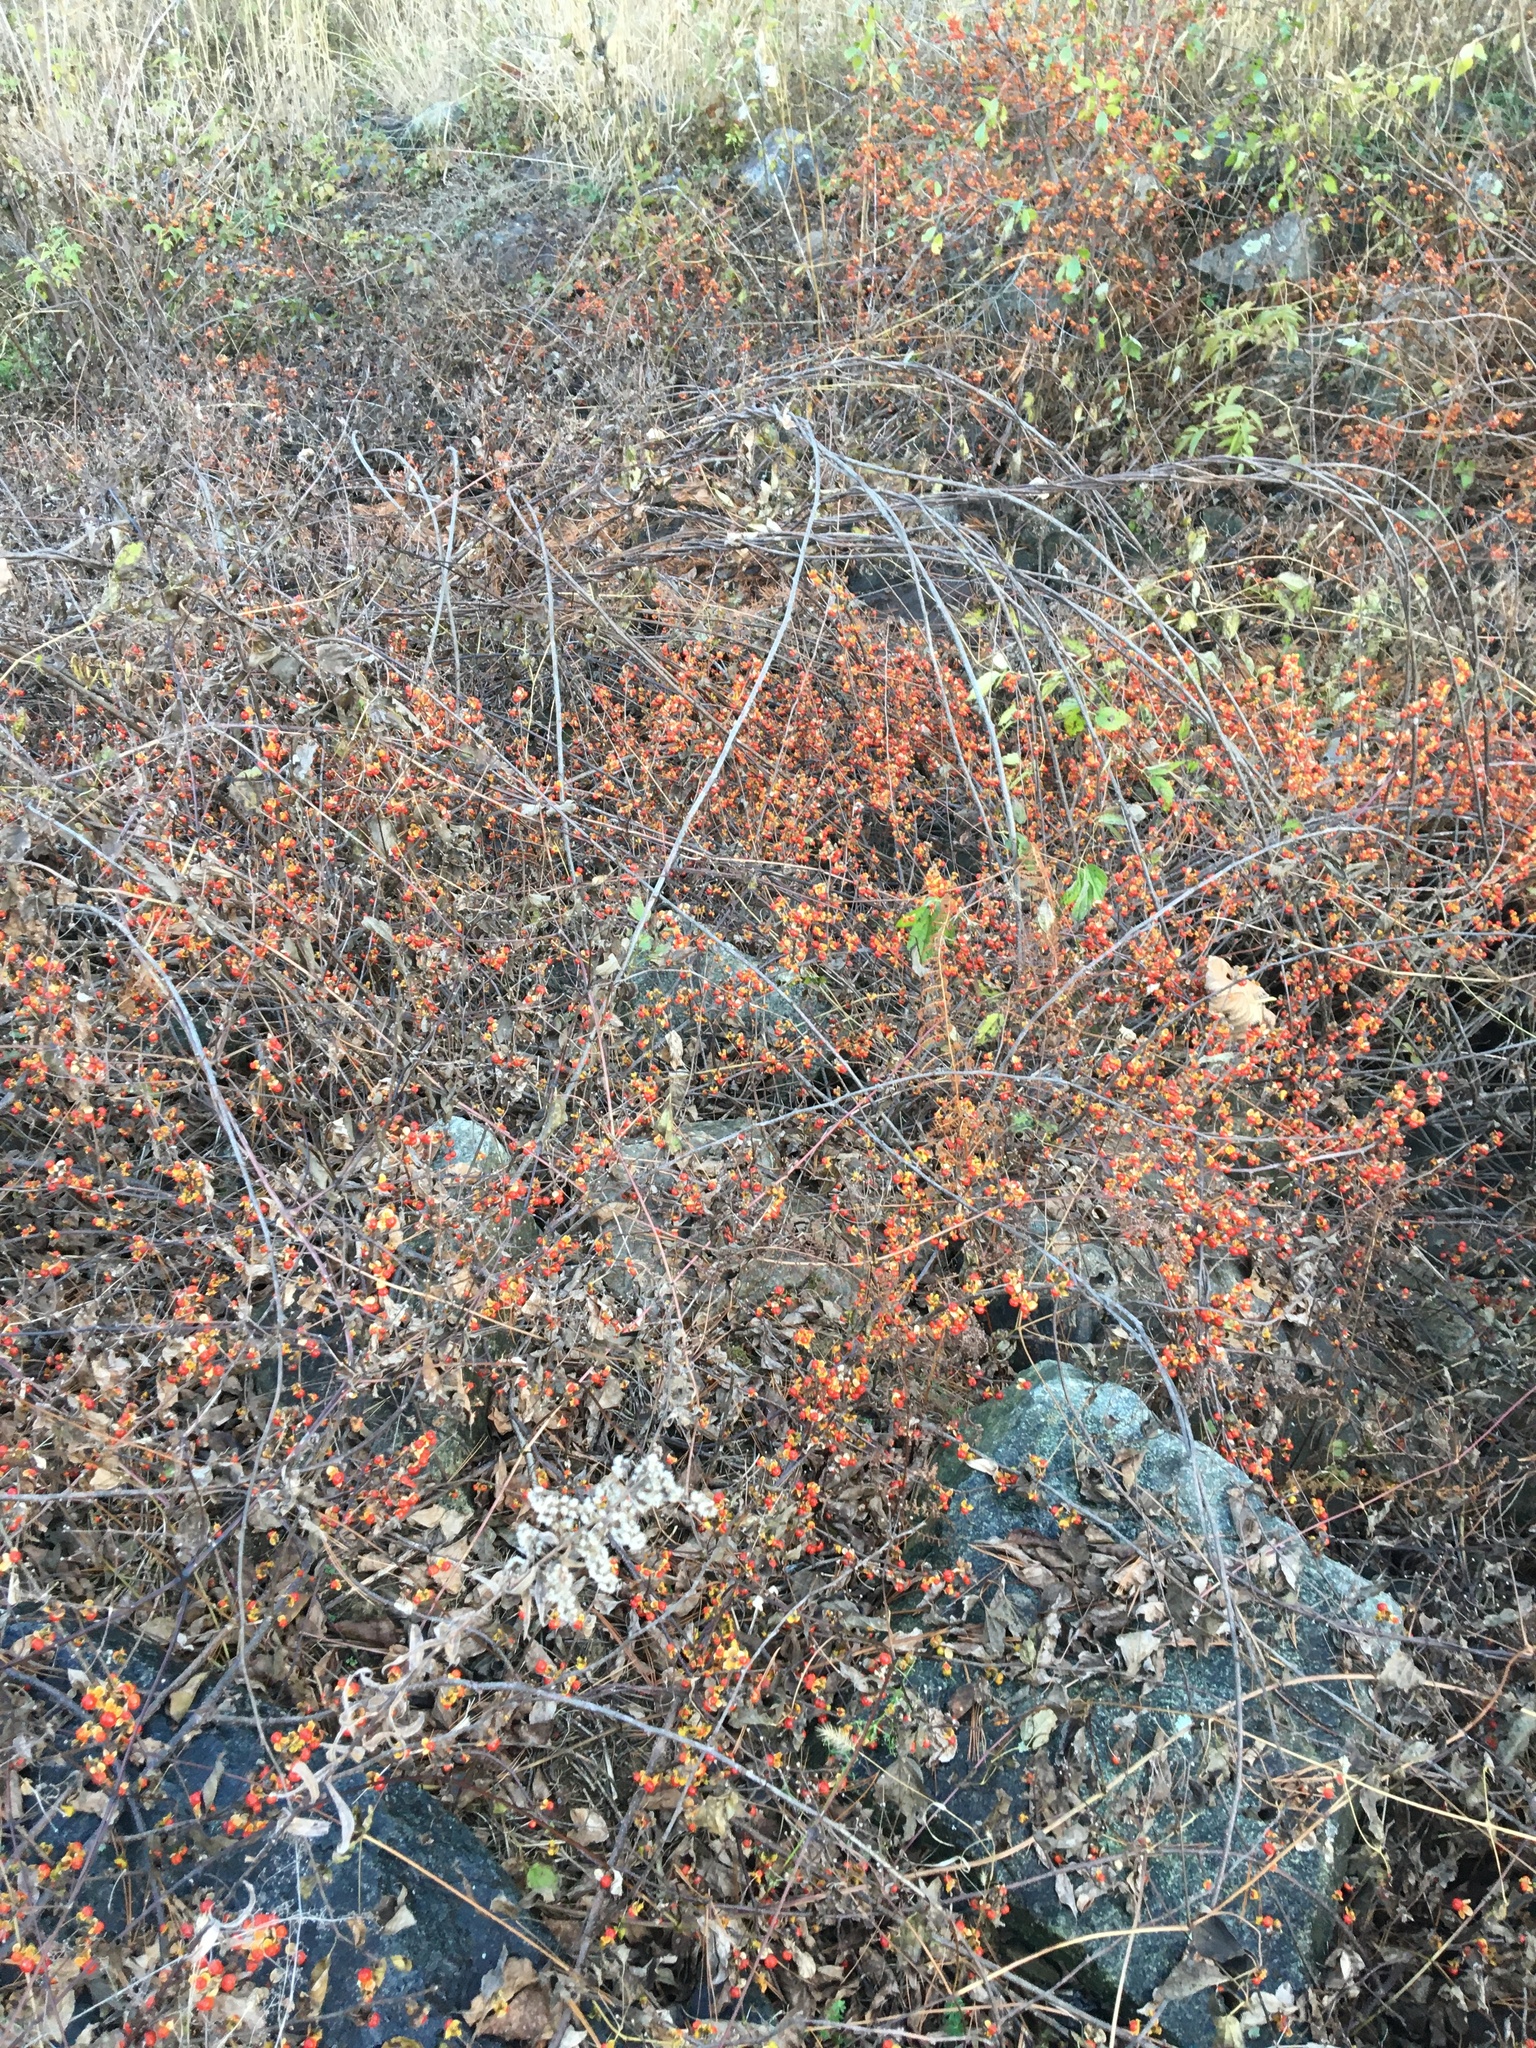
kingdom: Plantae
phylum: Tracheophyta
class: Magnoliopsida
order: Celastrales
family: Celastraceae
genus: Celastrus
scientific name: Celastrus orbiculatus
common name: Oriental bittersweet
